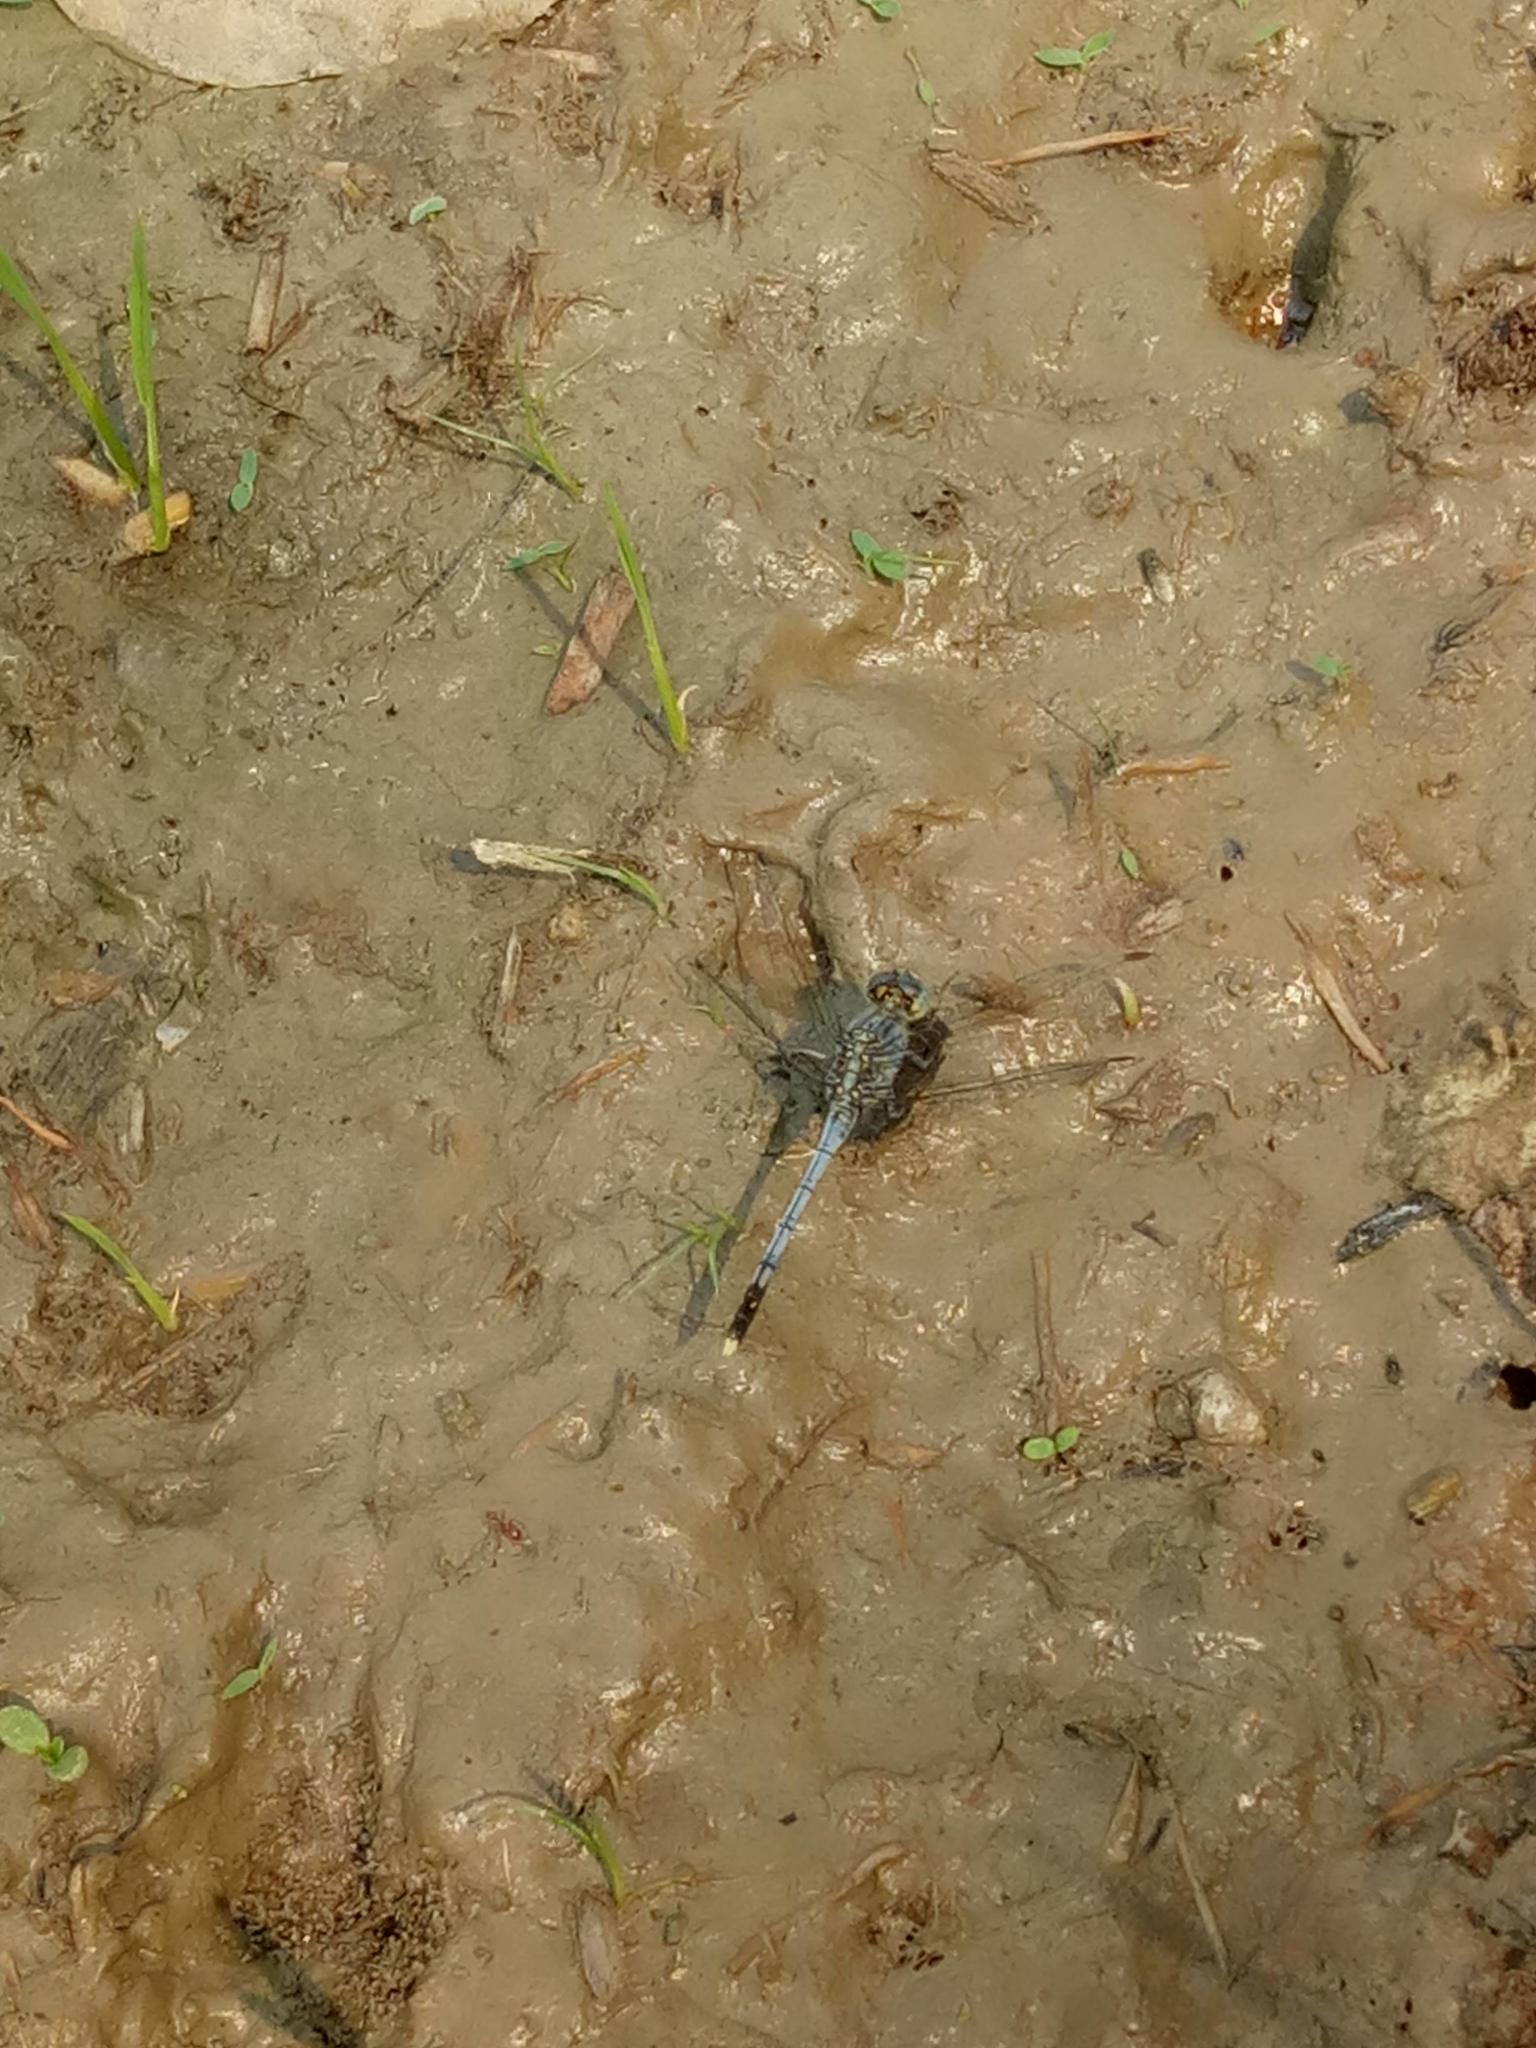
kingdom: Animalia
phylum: Arthropoda
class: Insecta
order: Odonata
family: Libellulidae
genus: Diplacodes
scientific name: Diplacodes trivialis
